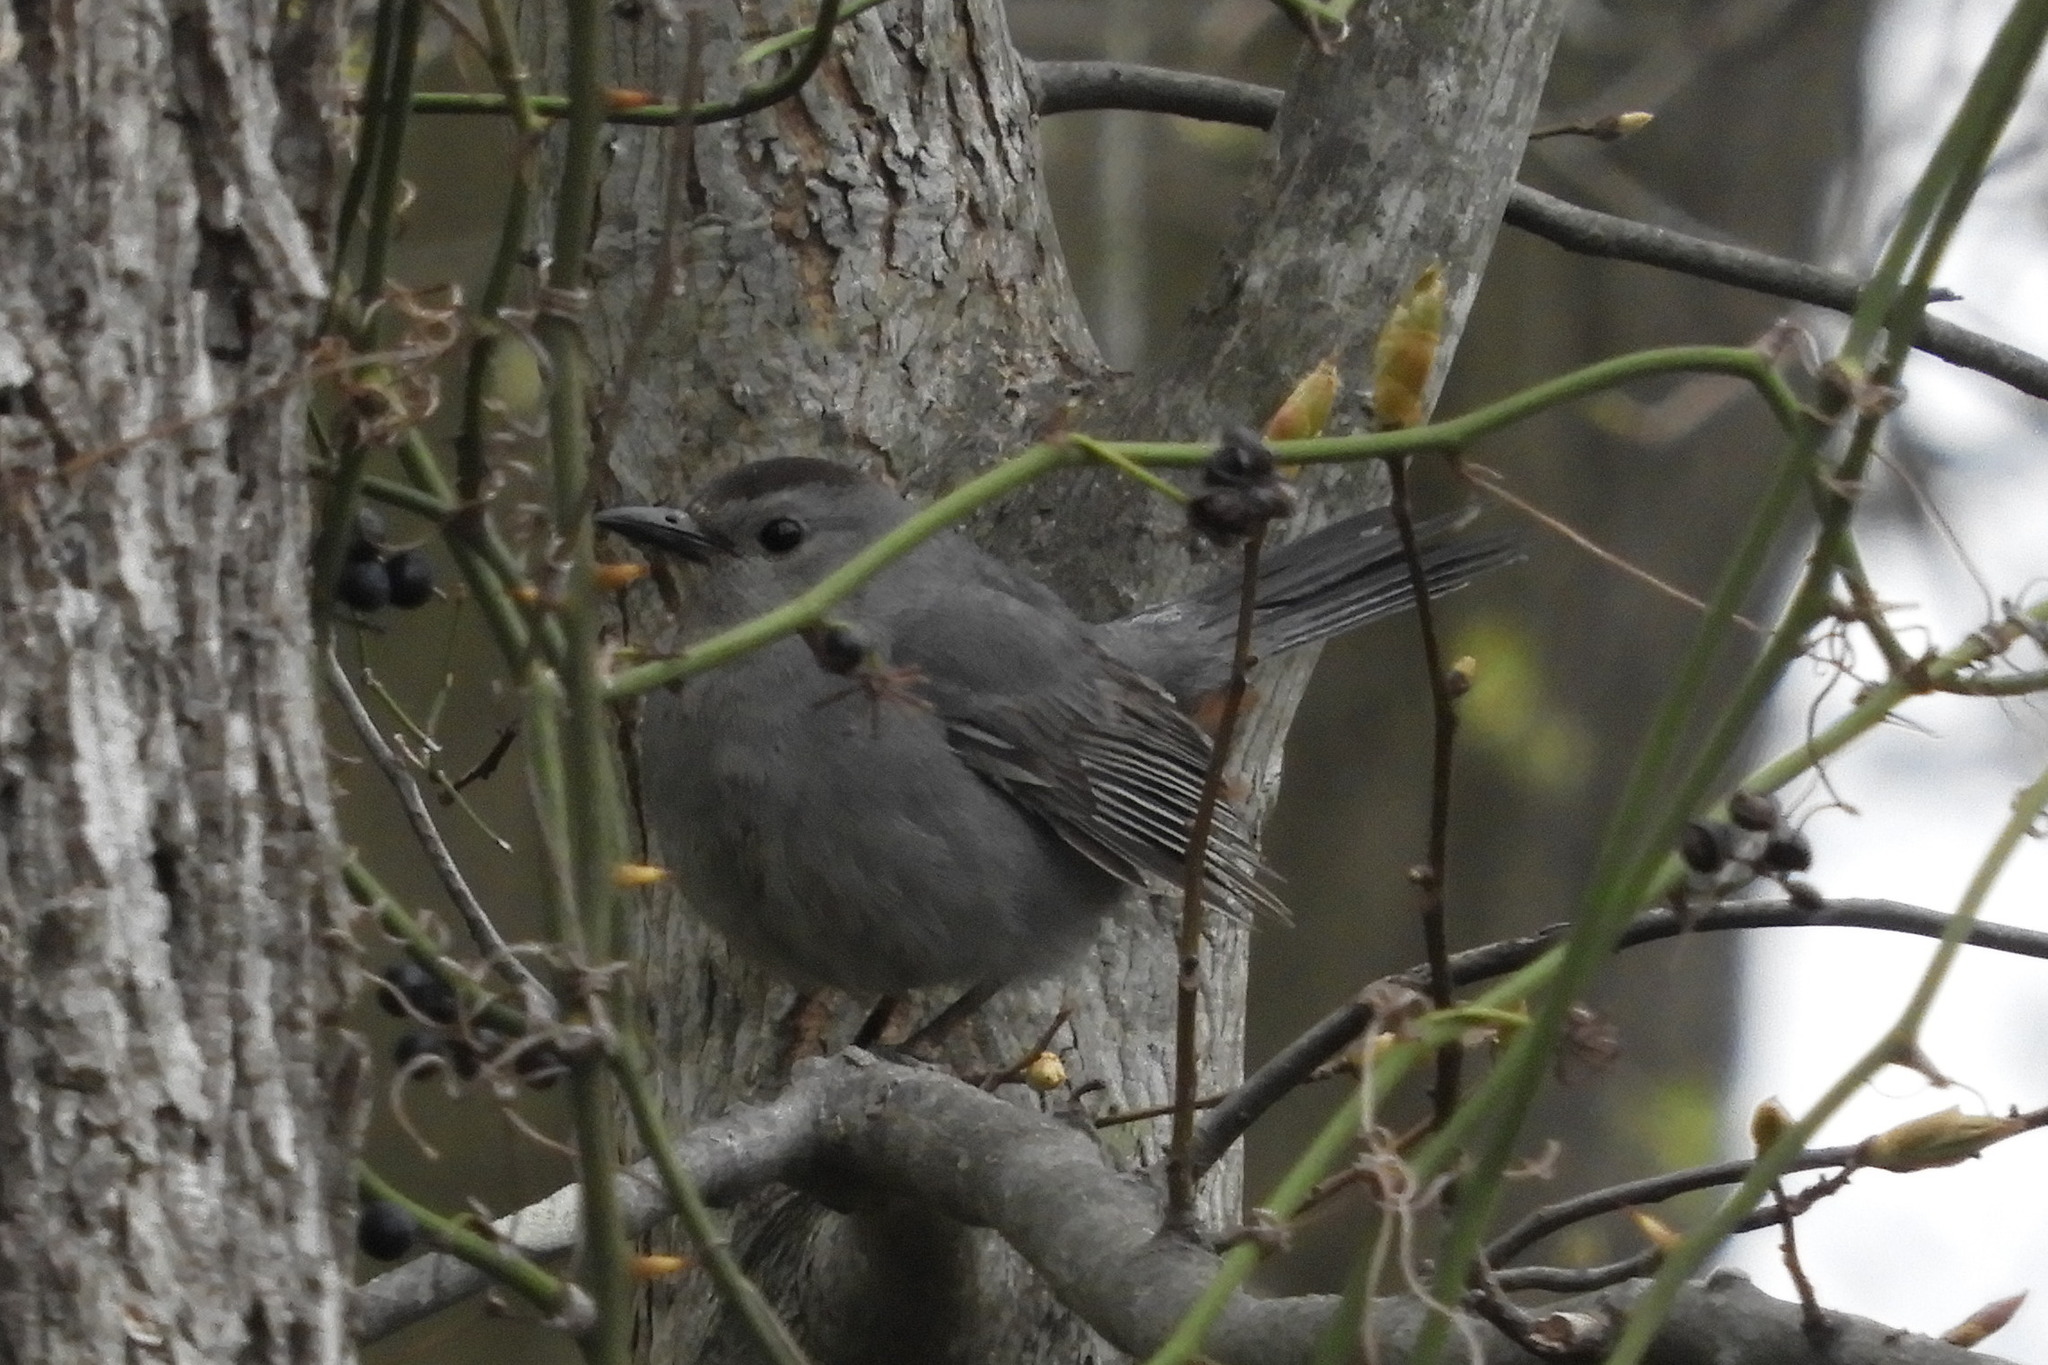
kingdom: Animalia
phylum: Chordata
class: Aves
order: Passeriformes
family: Mimidae
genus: Dumetella
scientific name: Dumetella carolinensis
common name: Gray catbird
